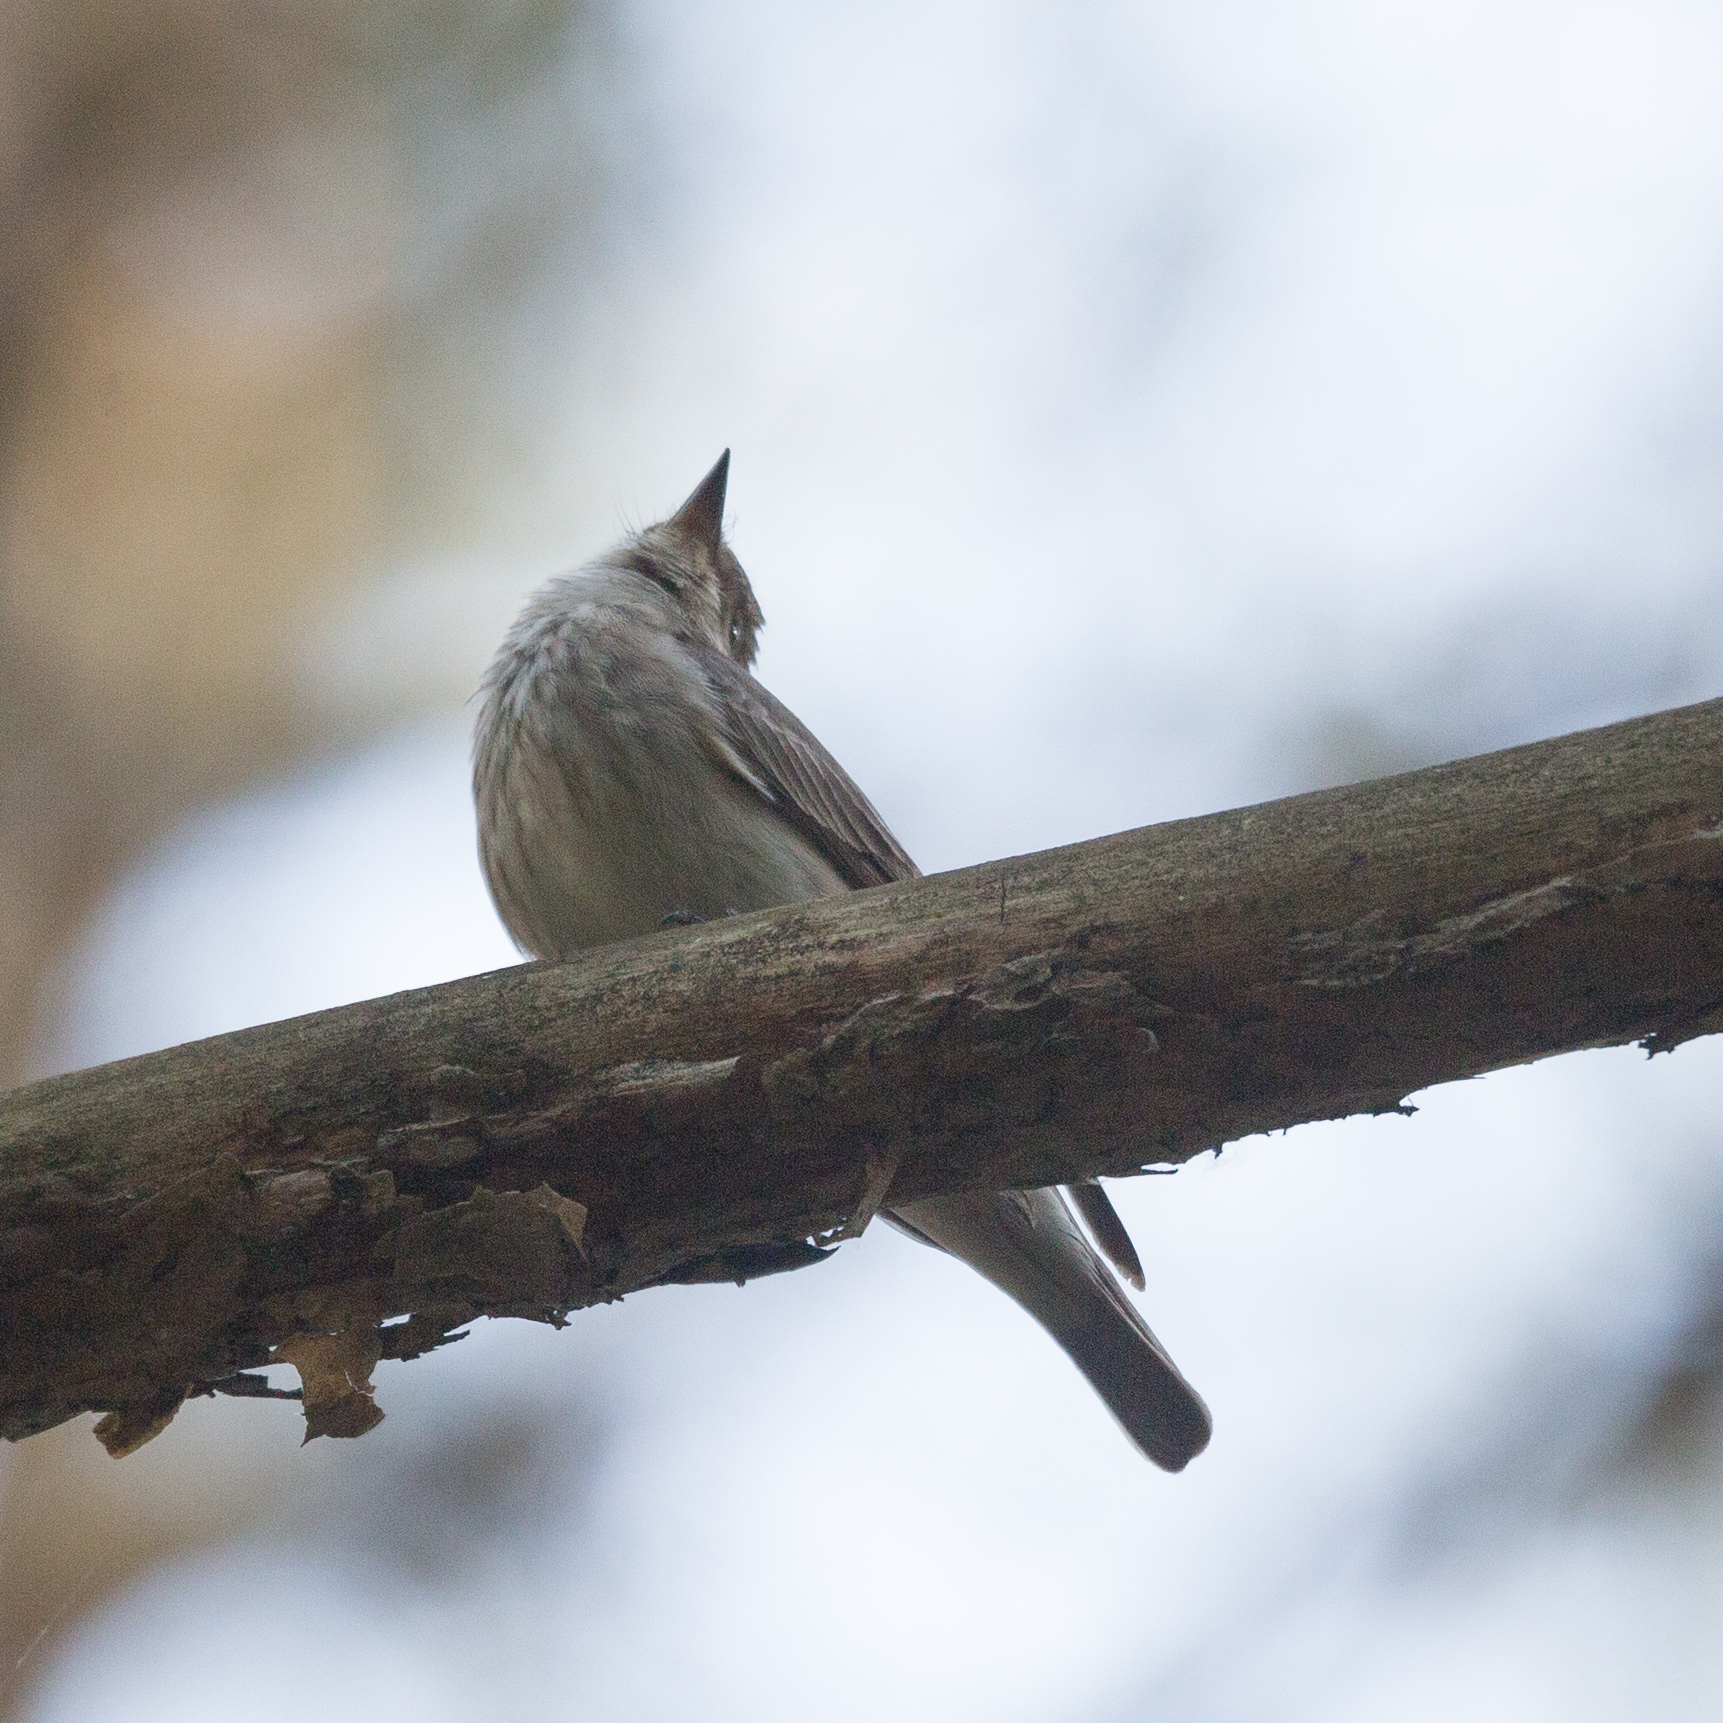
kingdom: Animalia
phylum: Chordata
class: Aves
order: Passeriformes
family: Muscicapidae
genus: Muscicapa
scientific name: Muscicapa striata
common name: Spotted flycatcher
